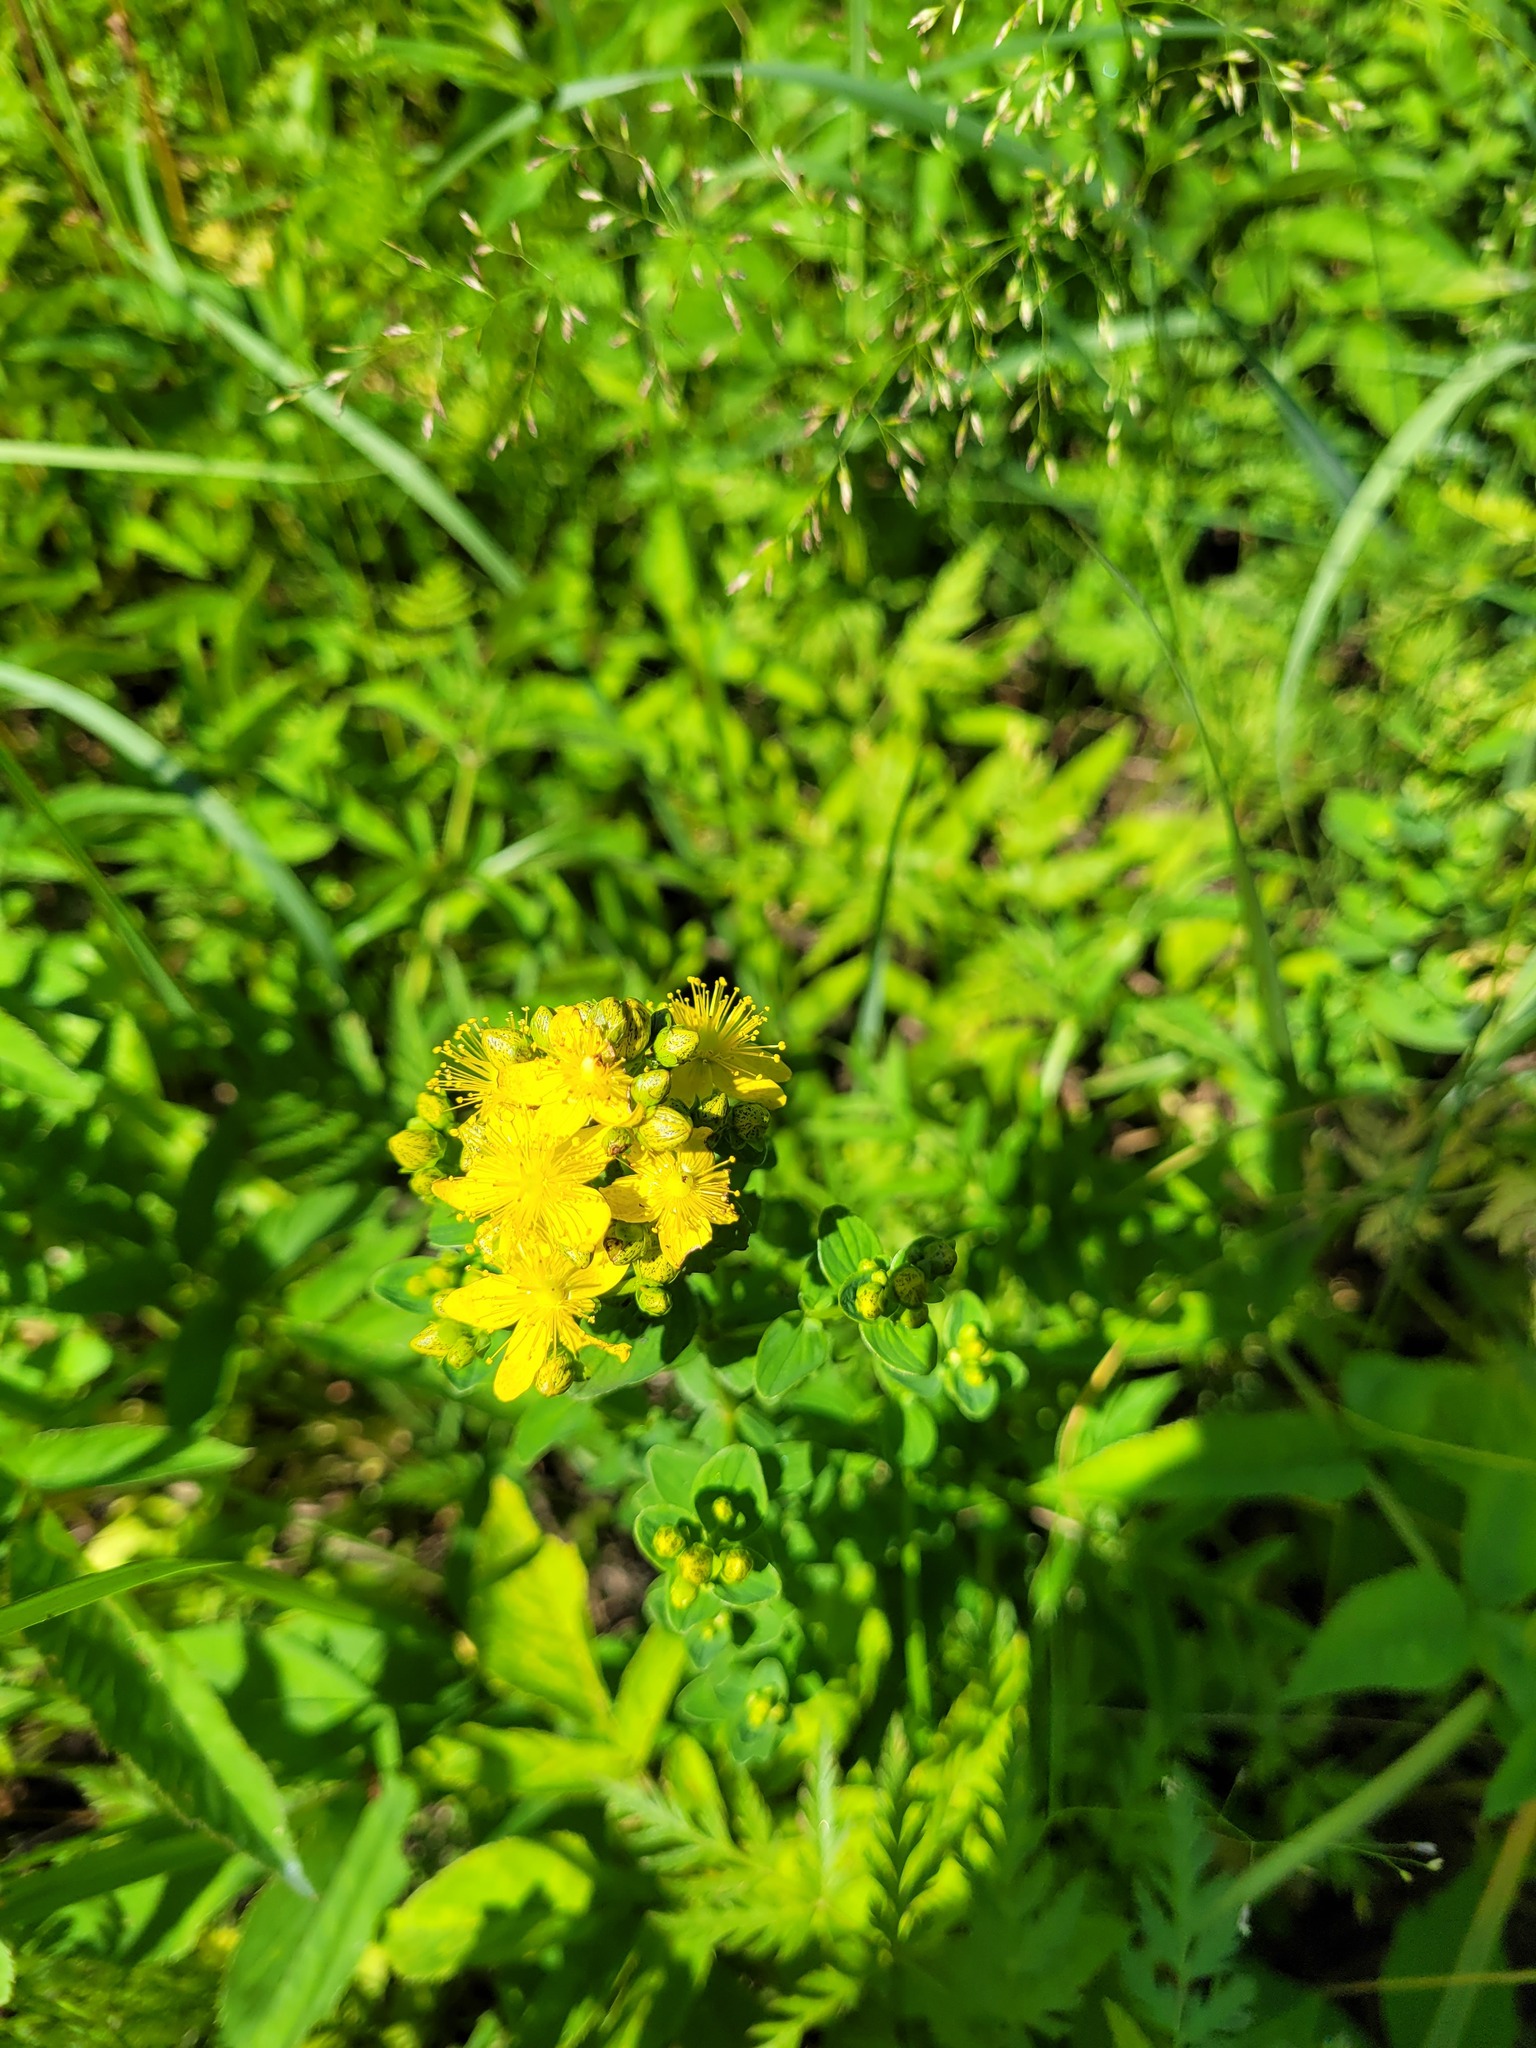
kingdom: Plantae
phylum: Tracheophyta
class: Magnoliopsida
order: Malpighiales
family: Hypericaceae
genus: Hypericum
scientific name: Hypericum maculatum
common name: Imperforate st. john's-wort
